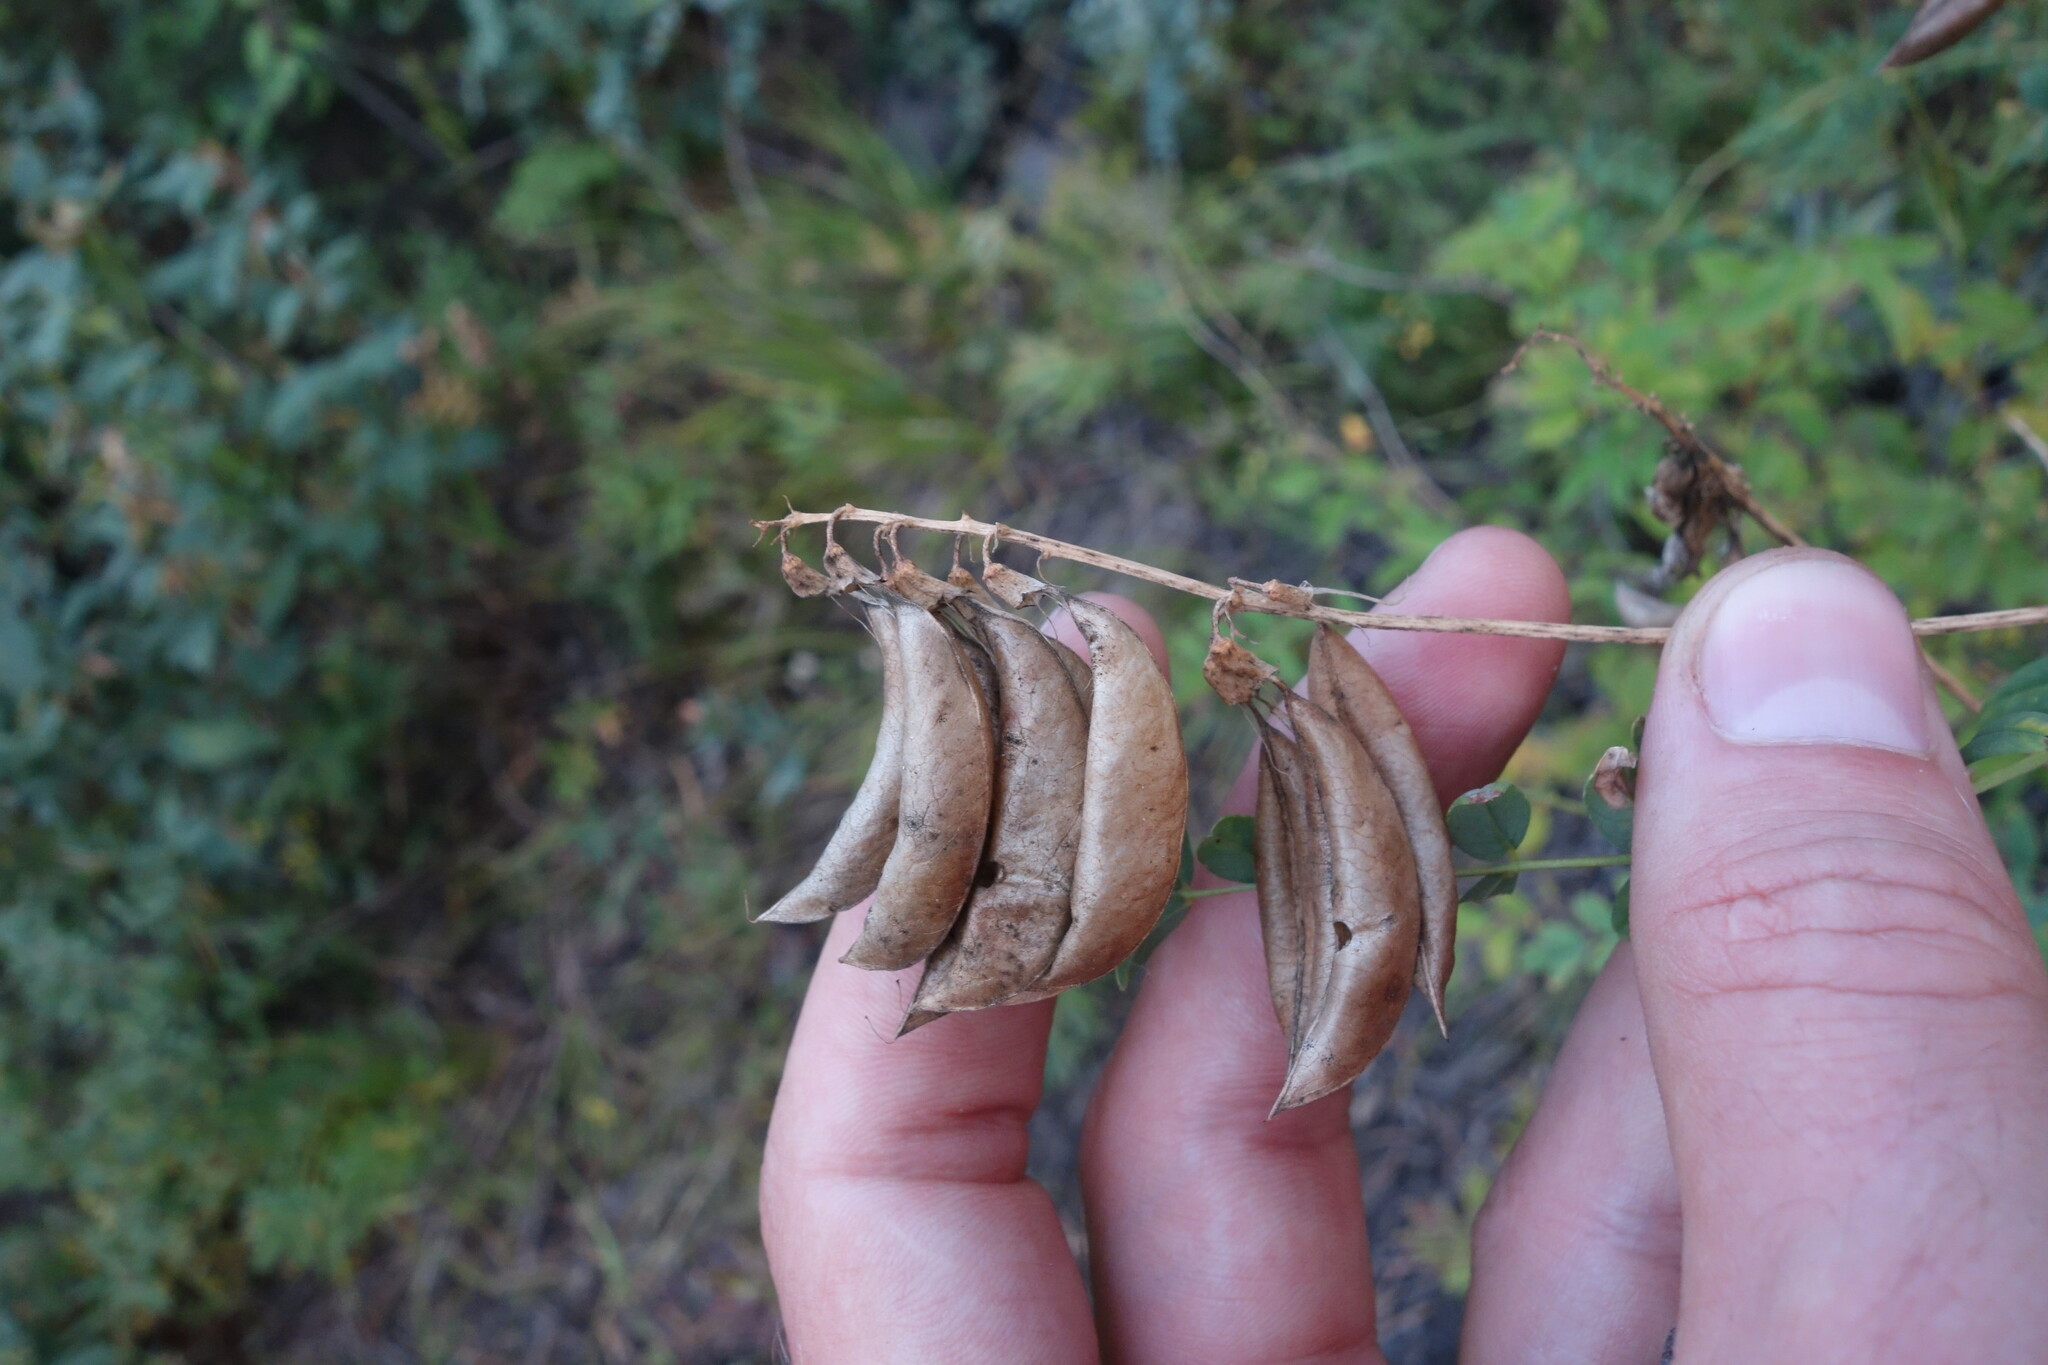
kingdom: Plantae
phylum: Tracheophyta
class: Magnoliopsida
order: Fabales
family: Fabaceae
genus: Astragalus
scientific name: Astragalus mongholicus
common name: Membranous milk-vetch
